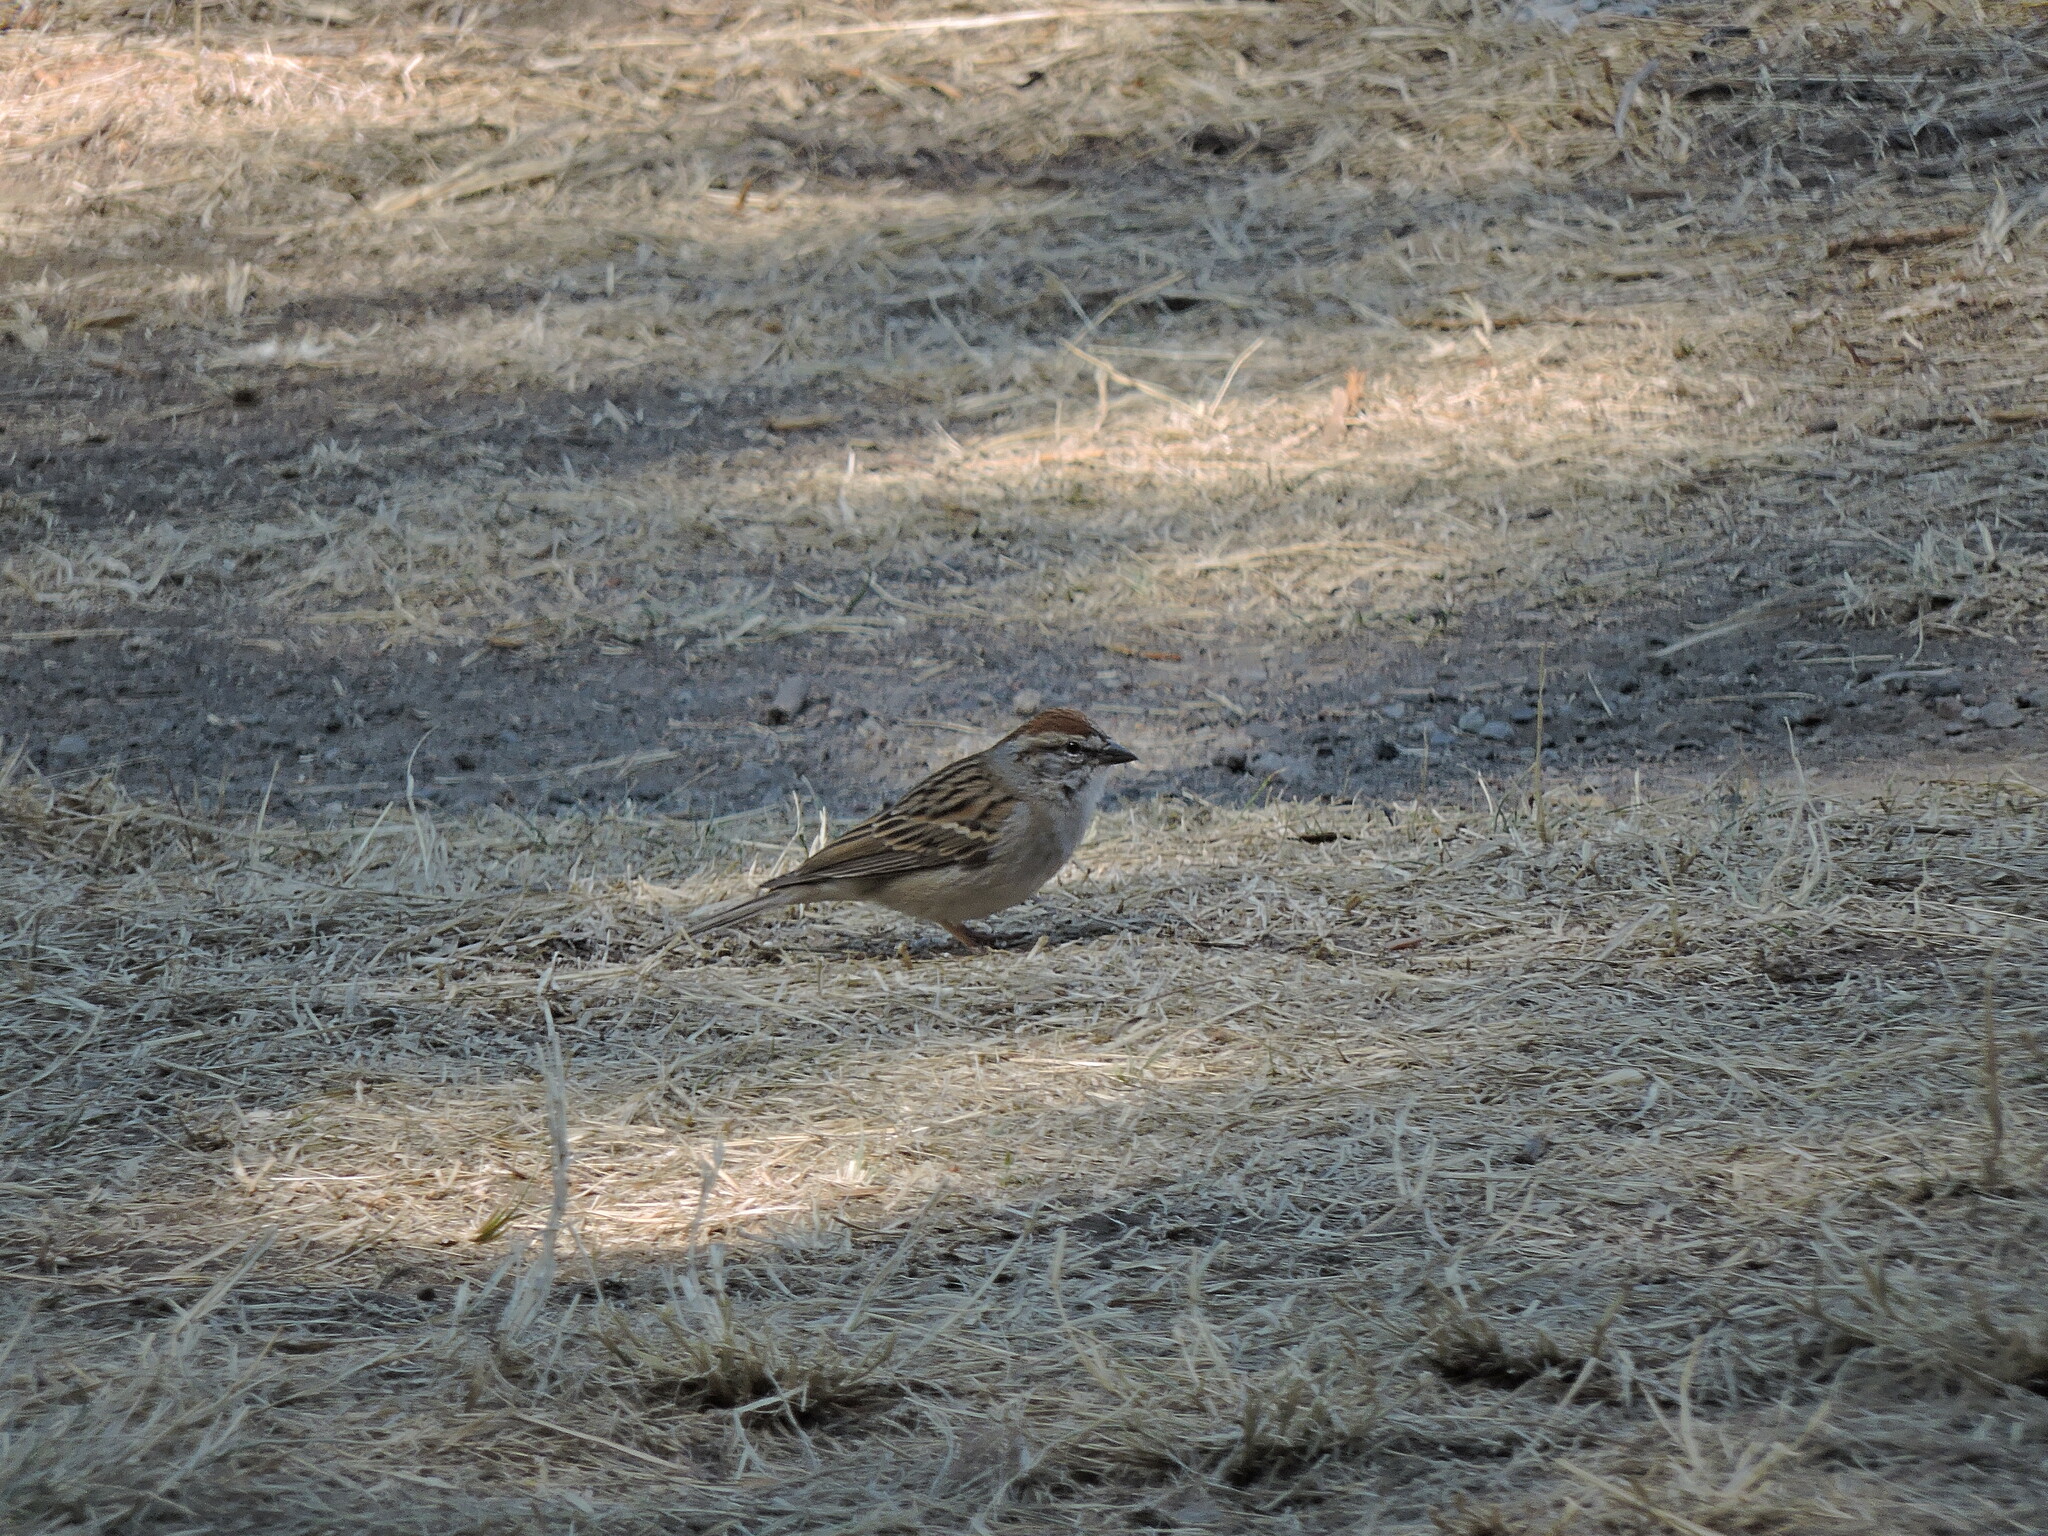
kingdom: Animalia
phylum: Chordata
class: Aves
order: Passeriformes
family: Passerellidae
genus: Spizella
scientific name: Spizella passerina
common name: Chipping sparrow
